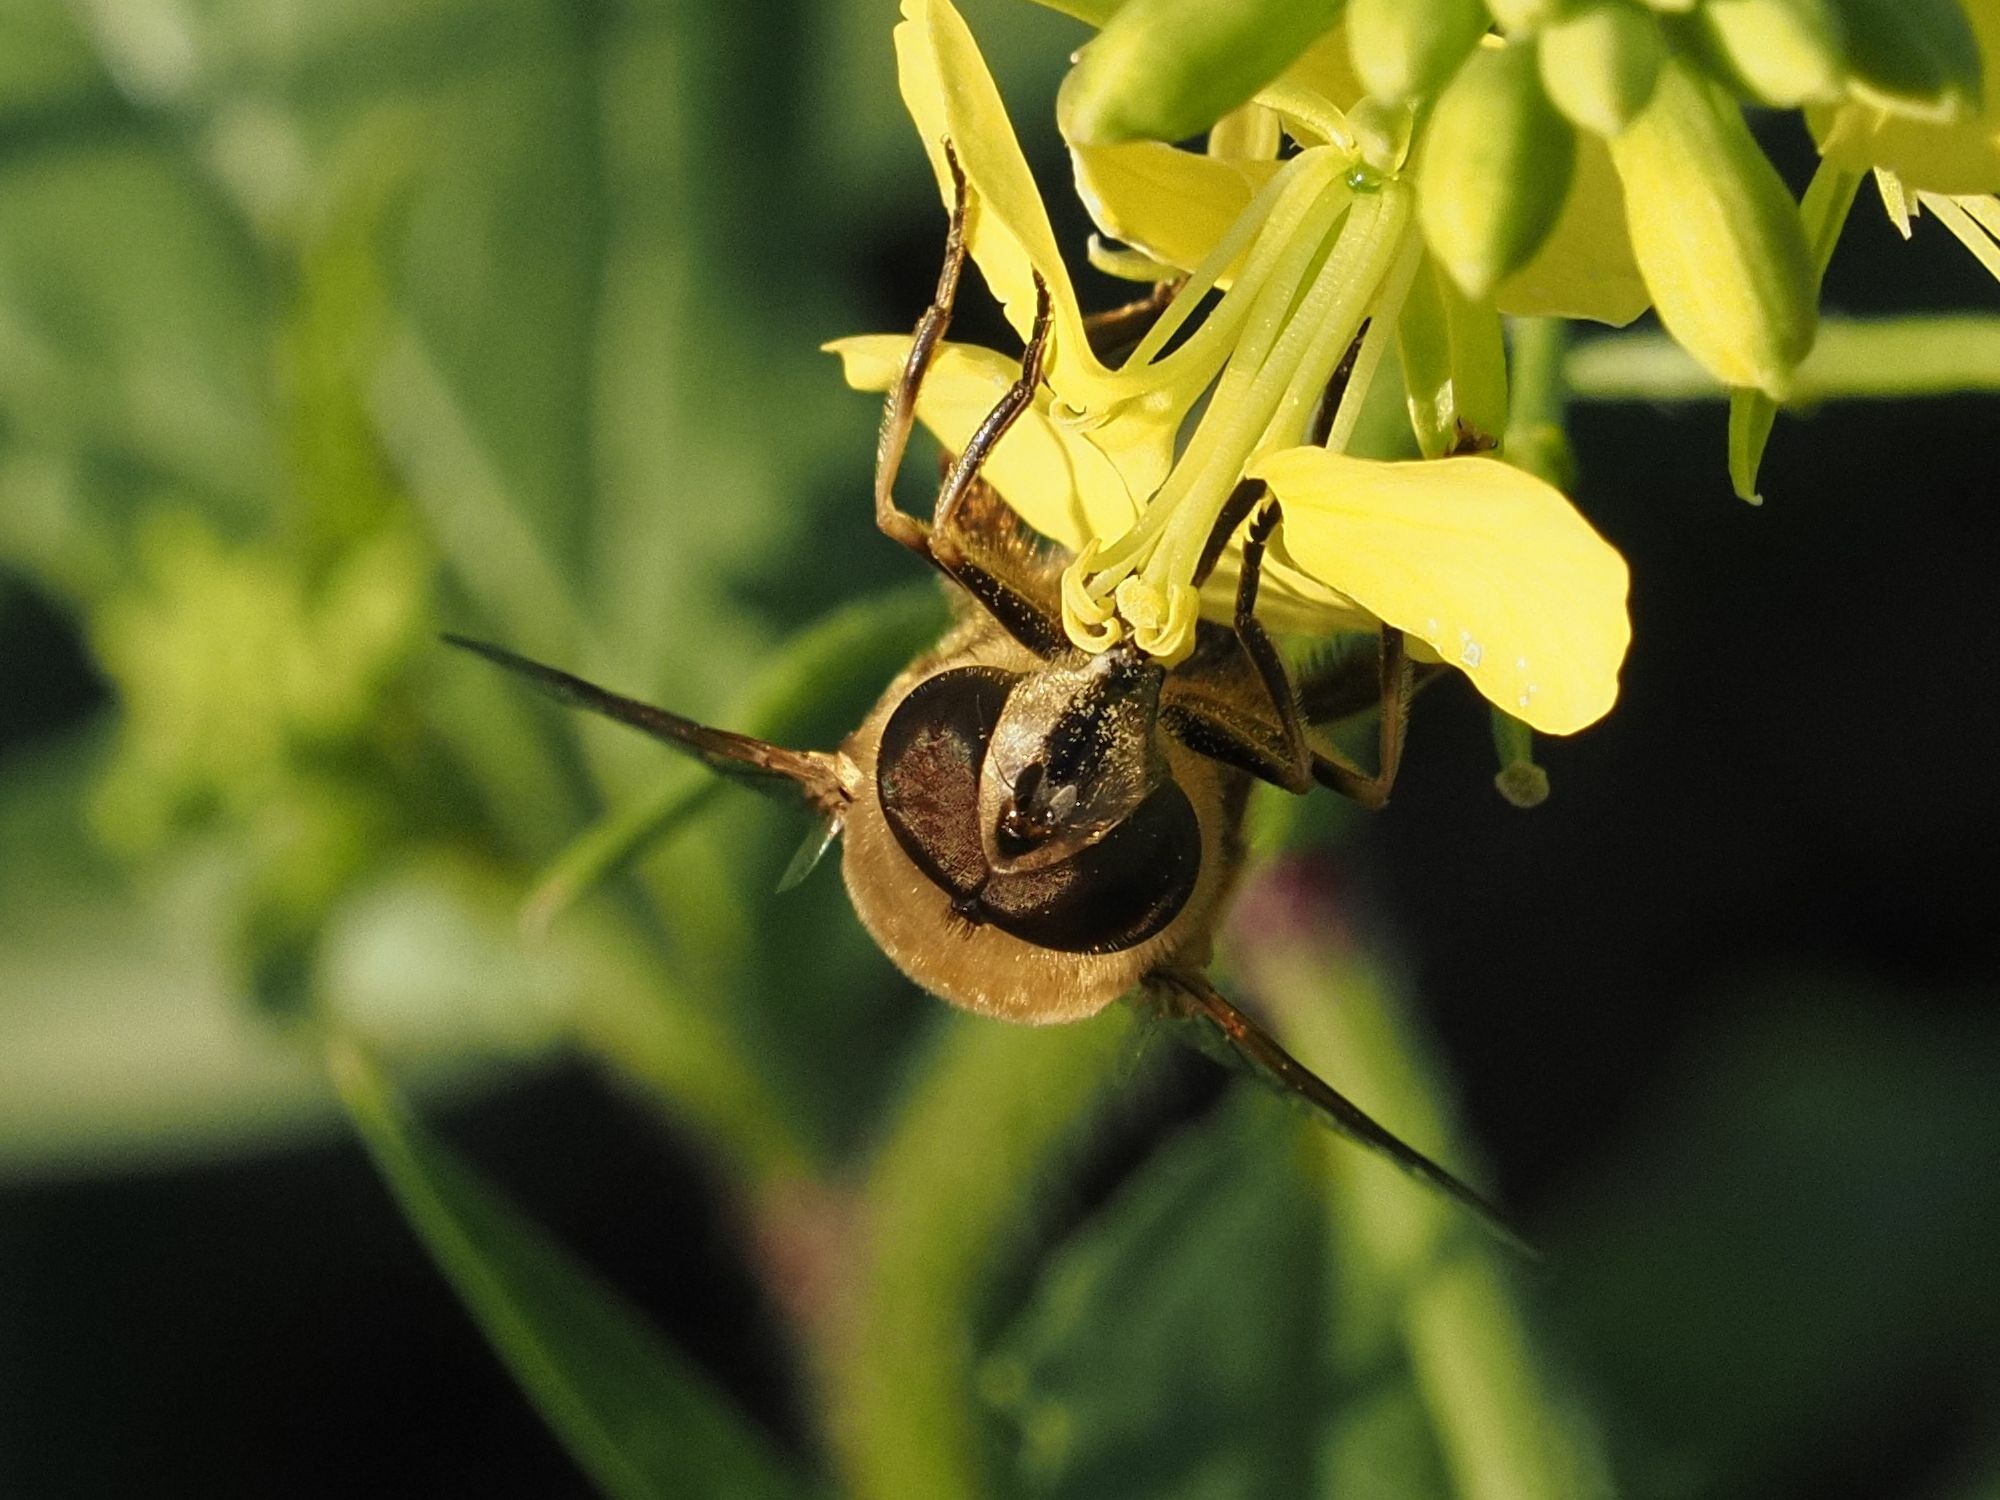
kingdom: Animalia
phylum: Arthropoda
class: Insecta
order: Diptera
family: Syrphidae
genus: Eristalis
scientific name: Eristalis tenax
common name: Drone fly
